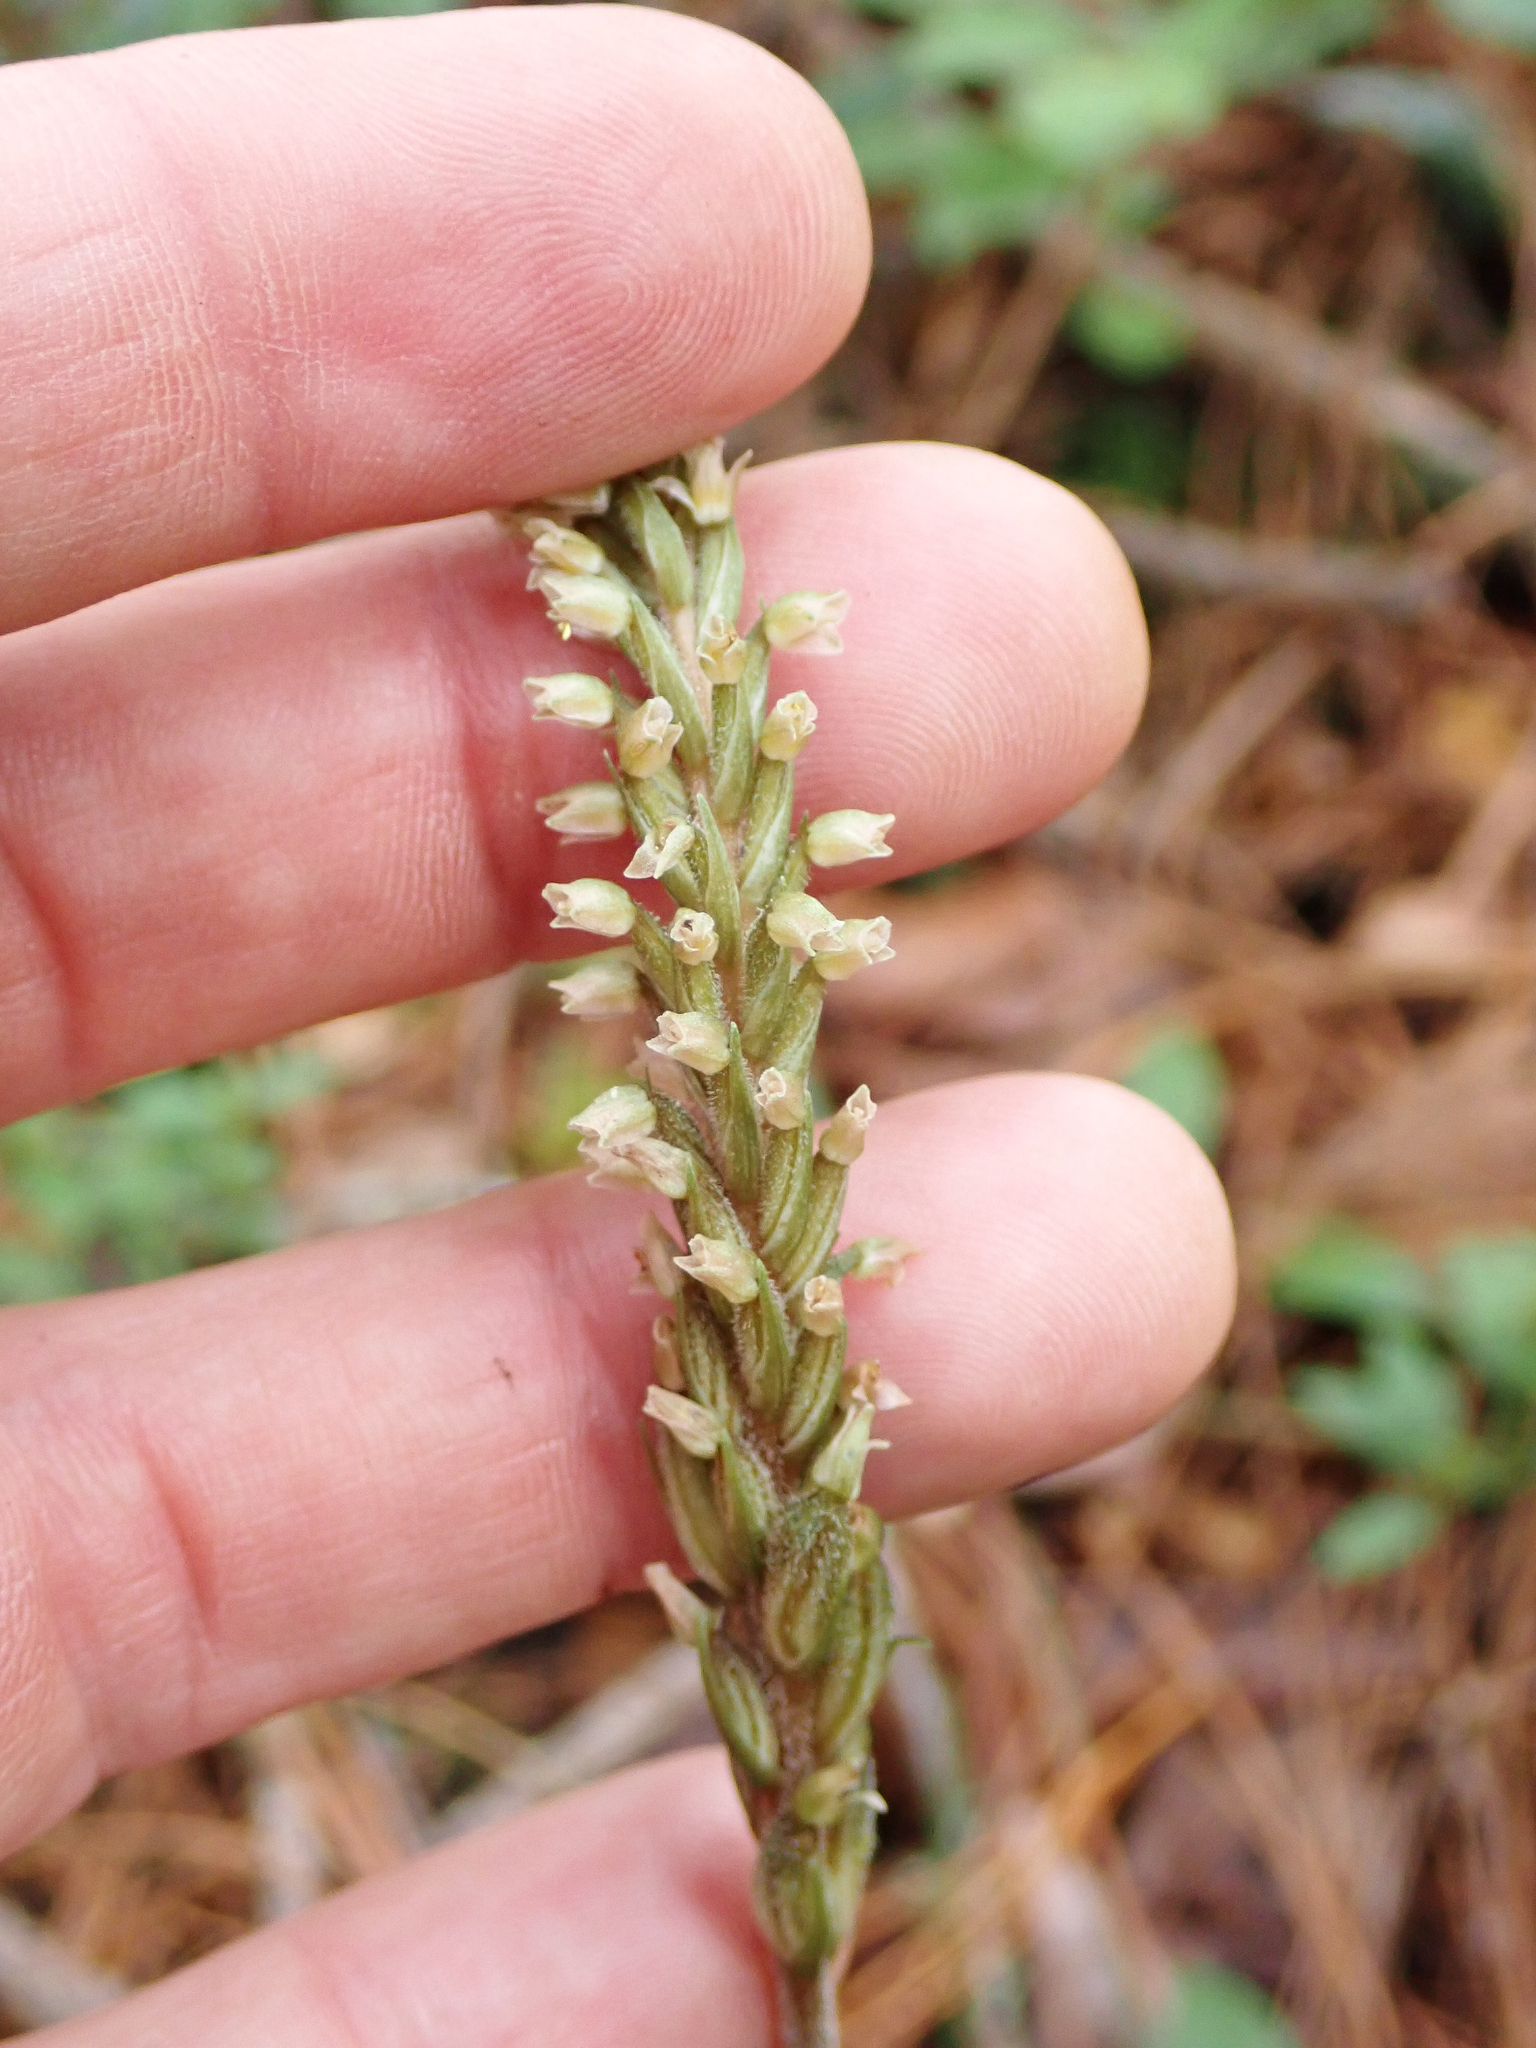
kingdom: Plantae
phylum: Tracheophyta
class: Liliopsida
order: Asparagales
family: Orchidaceae
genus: Goodyera
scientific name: Goodyera striata
